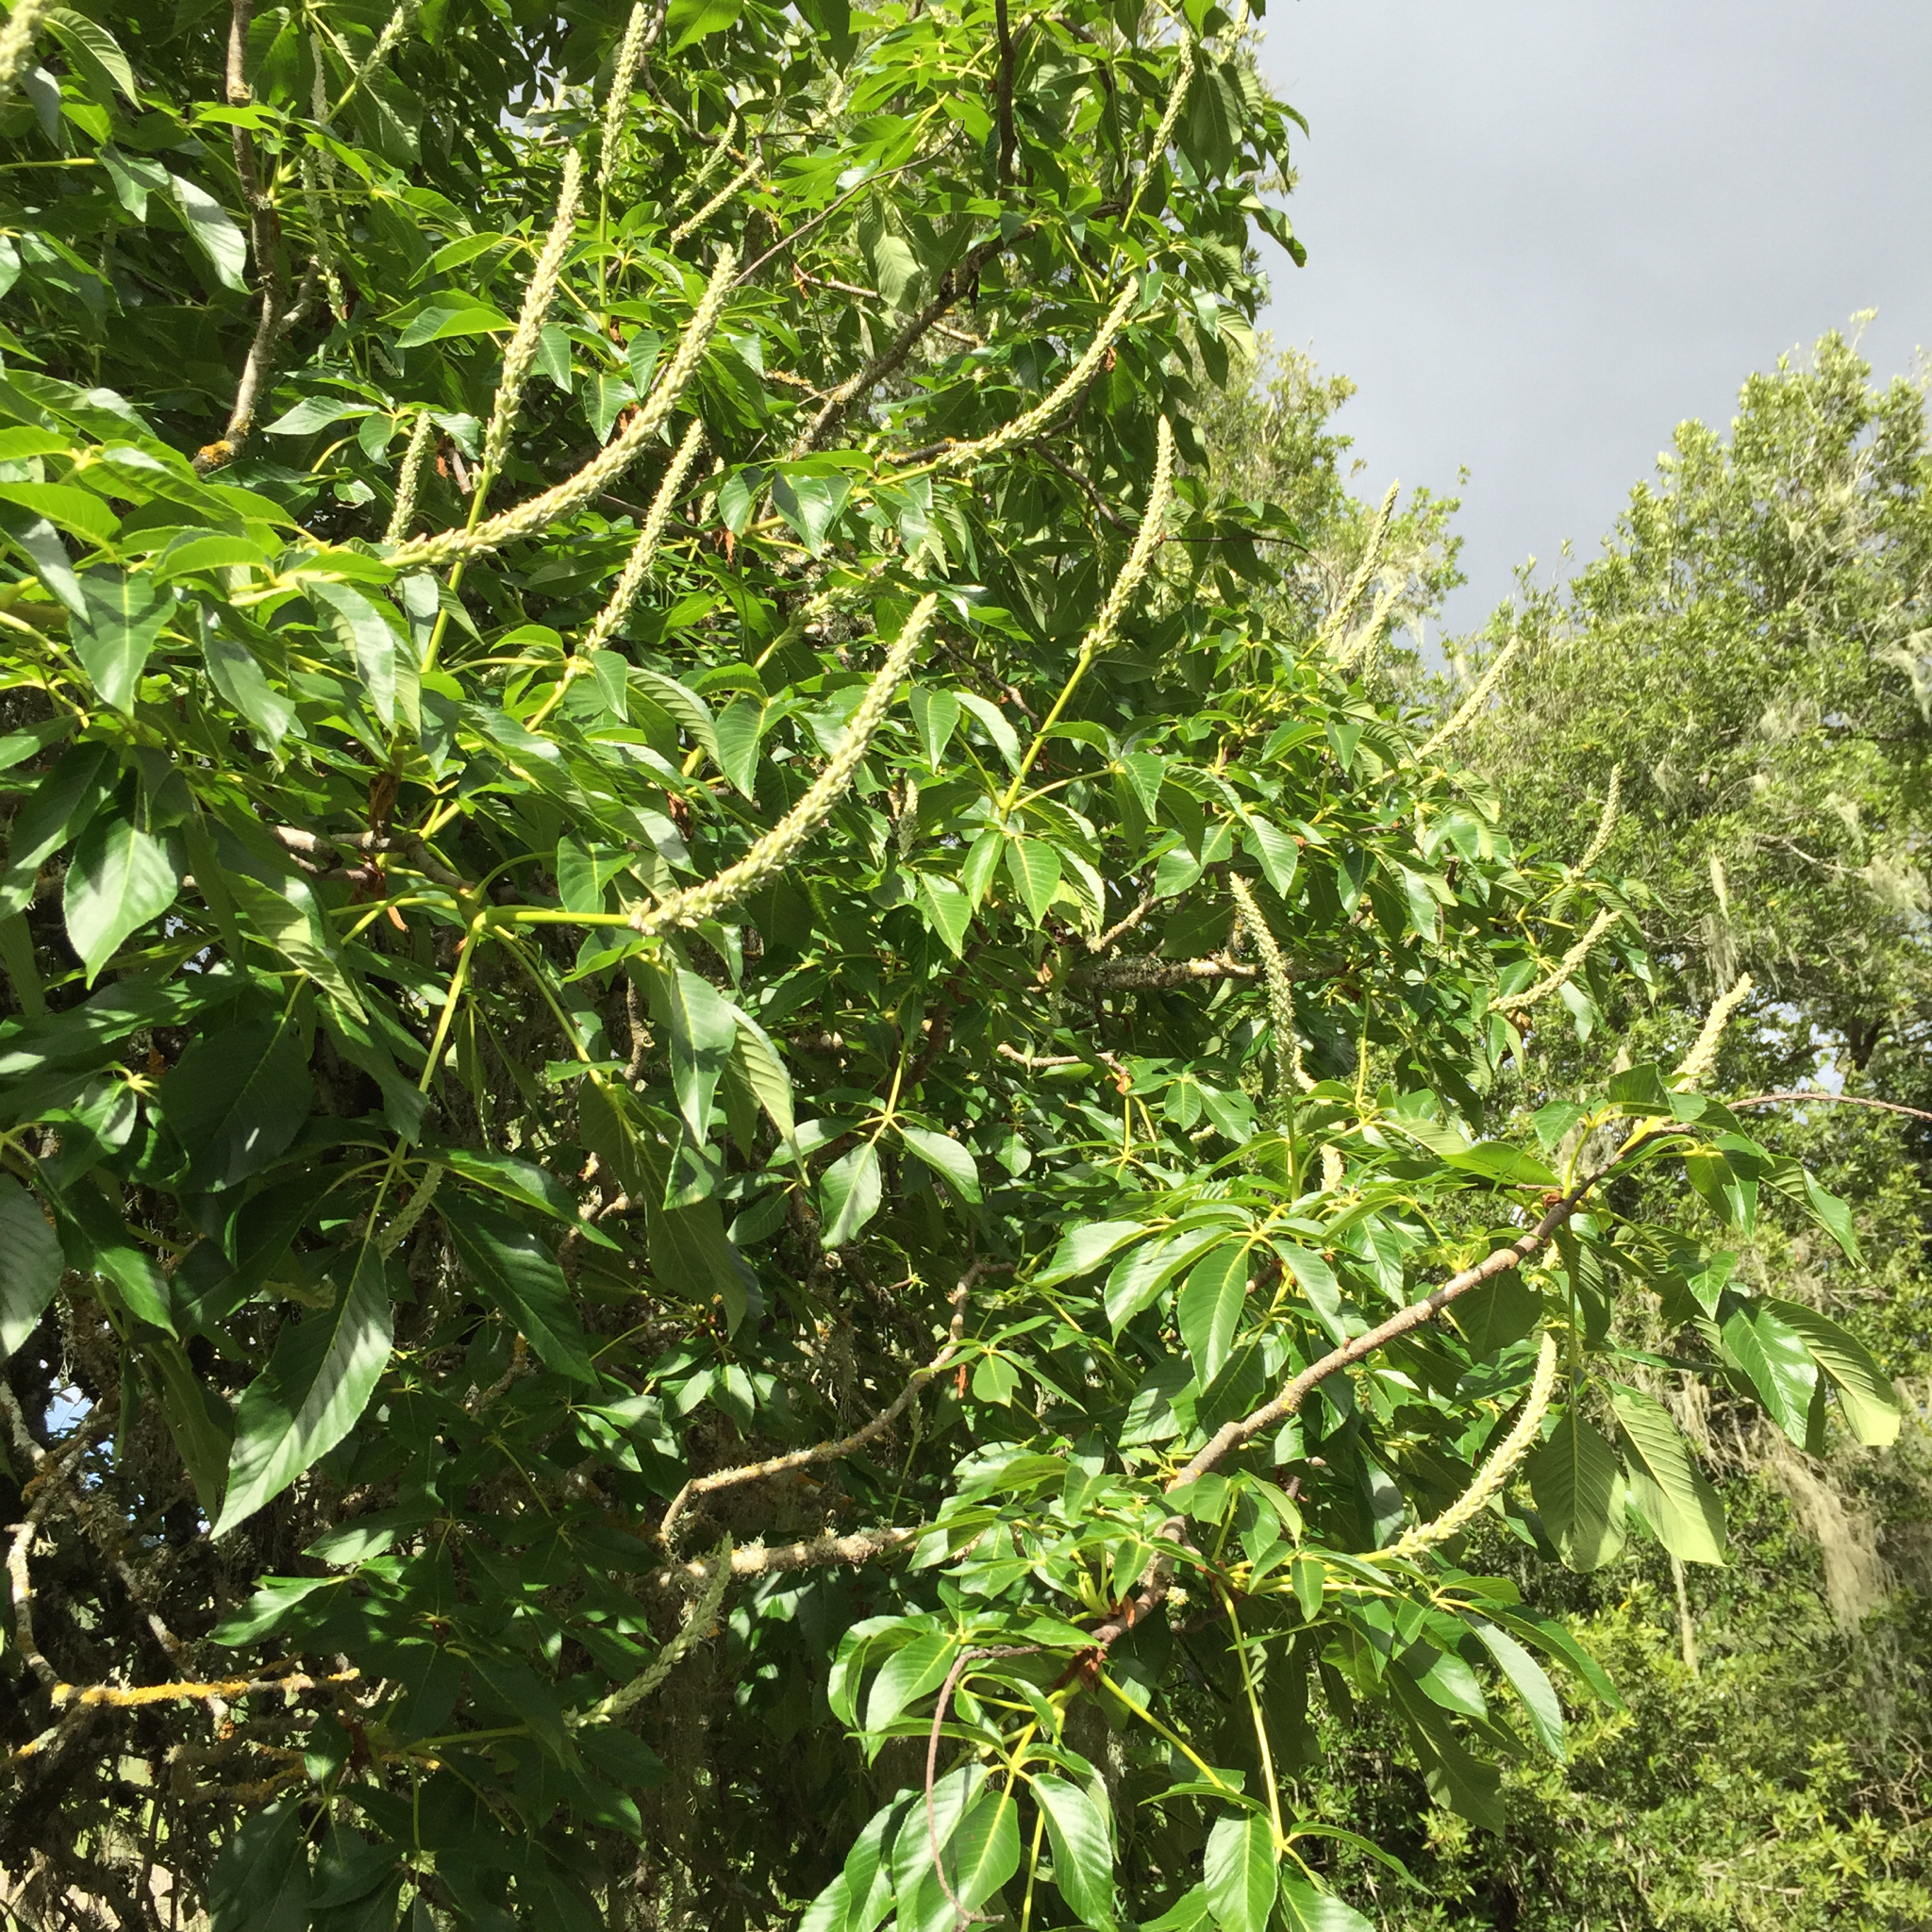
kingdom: Plantae
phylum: Tracheophyta
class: Magnoliopsida
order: Sapindales
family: Sapindaceae
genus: Aesculus
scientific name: Aesculus californica
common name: California buckeye
